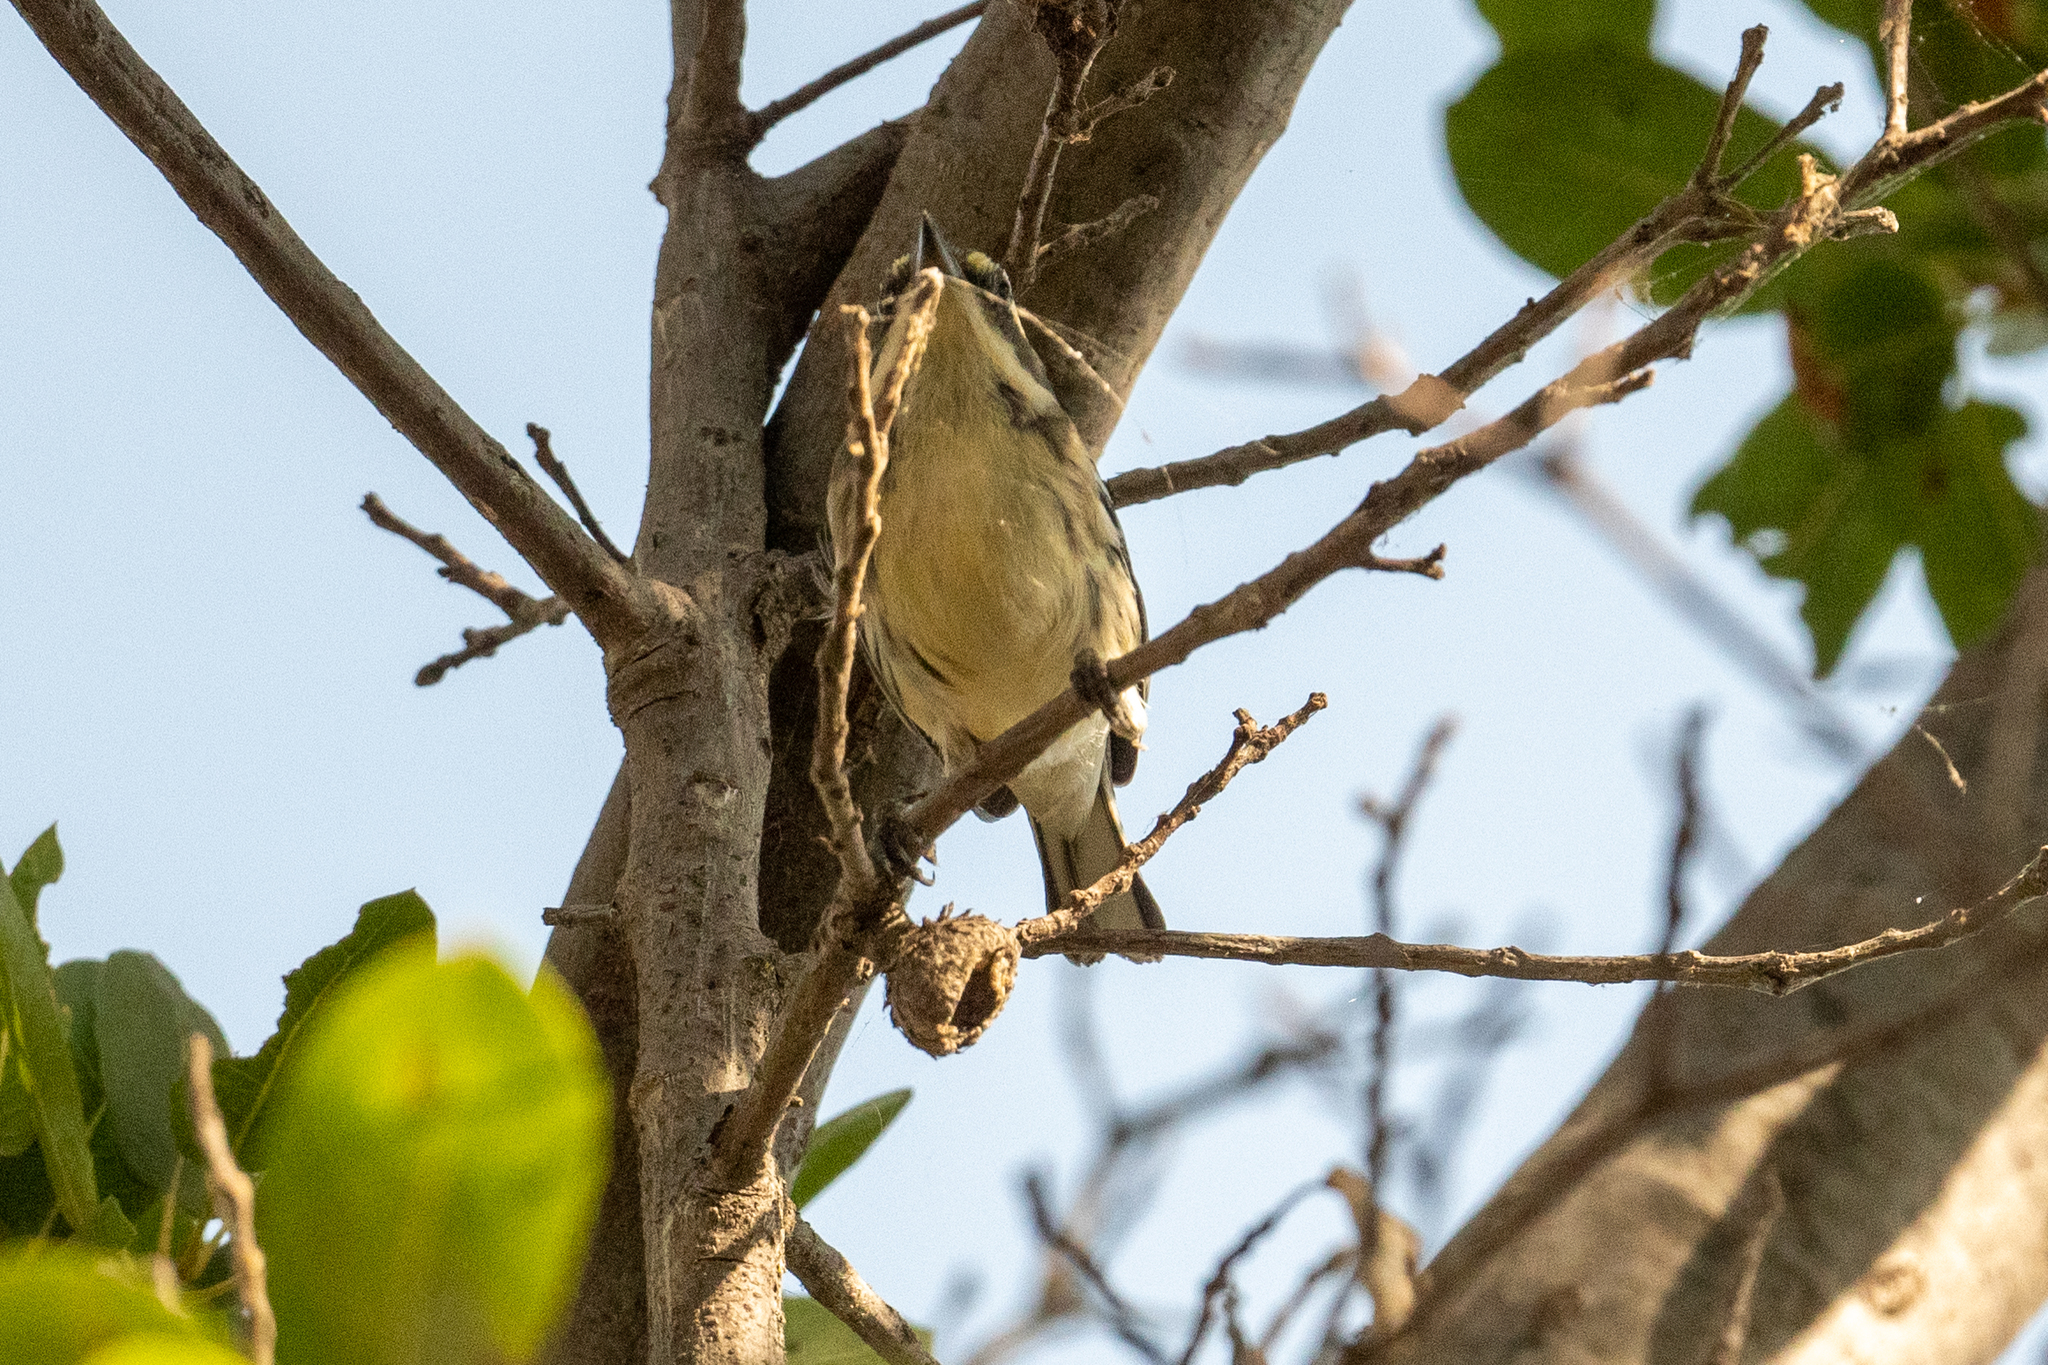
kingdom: Animalia
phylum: Chordata
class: Aves
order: Passeriformes
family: Parulidae
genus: Setophaga
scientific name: Setophaga nigrescens
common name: Black-throated gray warbler
